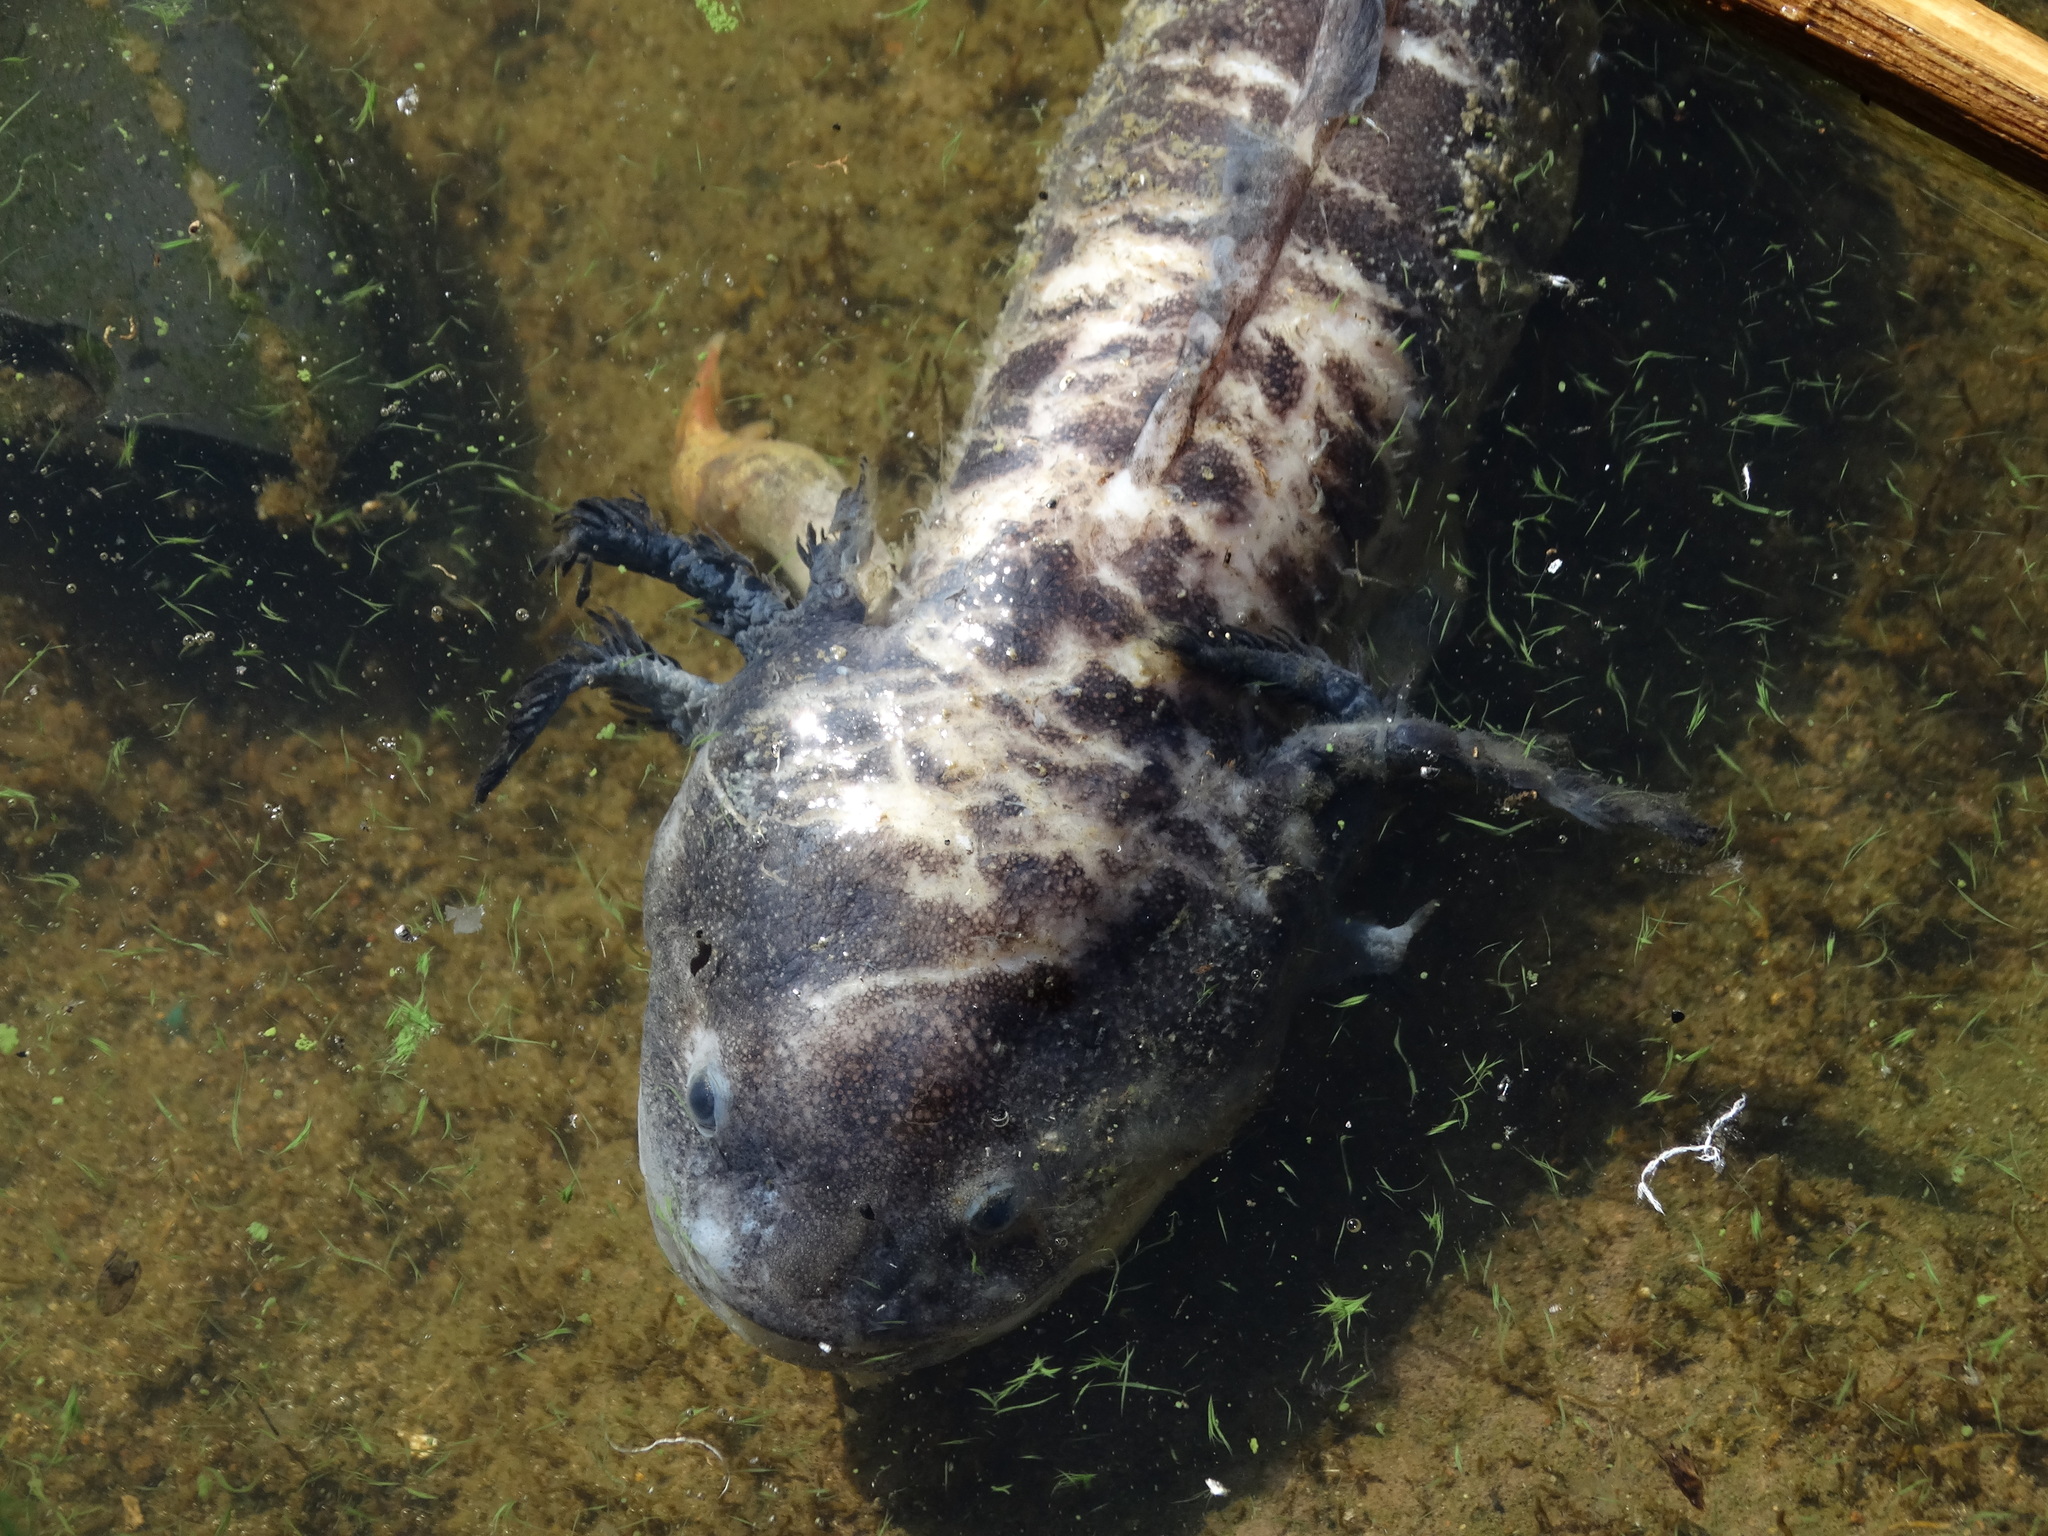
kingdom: Animalia
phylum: Chordata
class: Amphibia
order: Caudata
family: Ambystomatidae
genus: Ambystoma
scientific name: Ambystoma velasci
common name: Plateau tiger salamander
